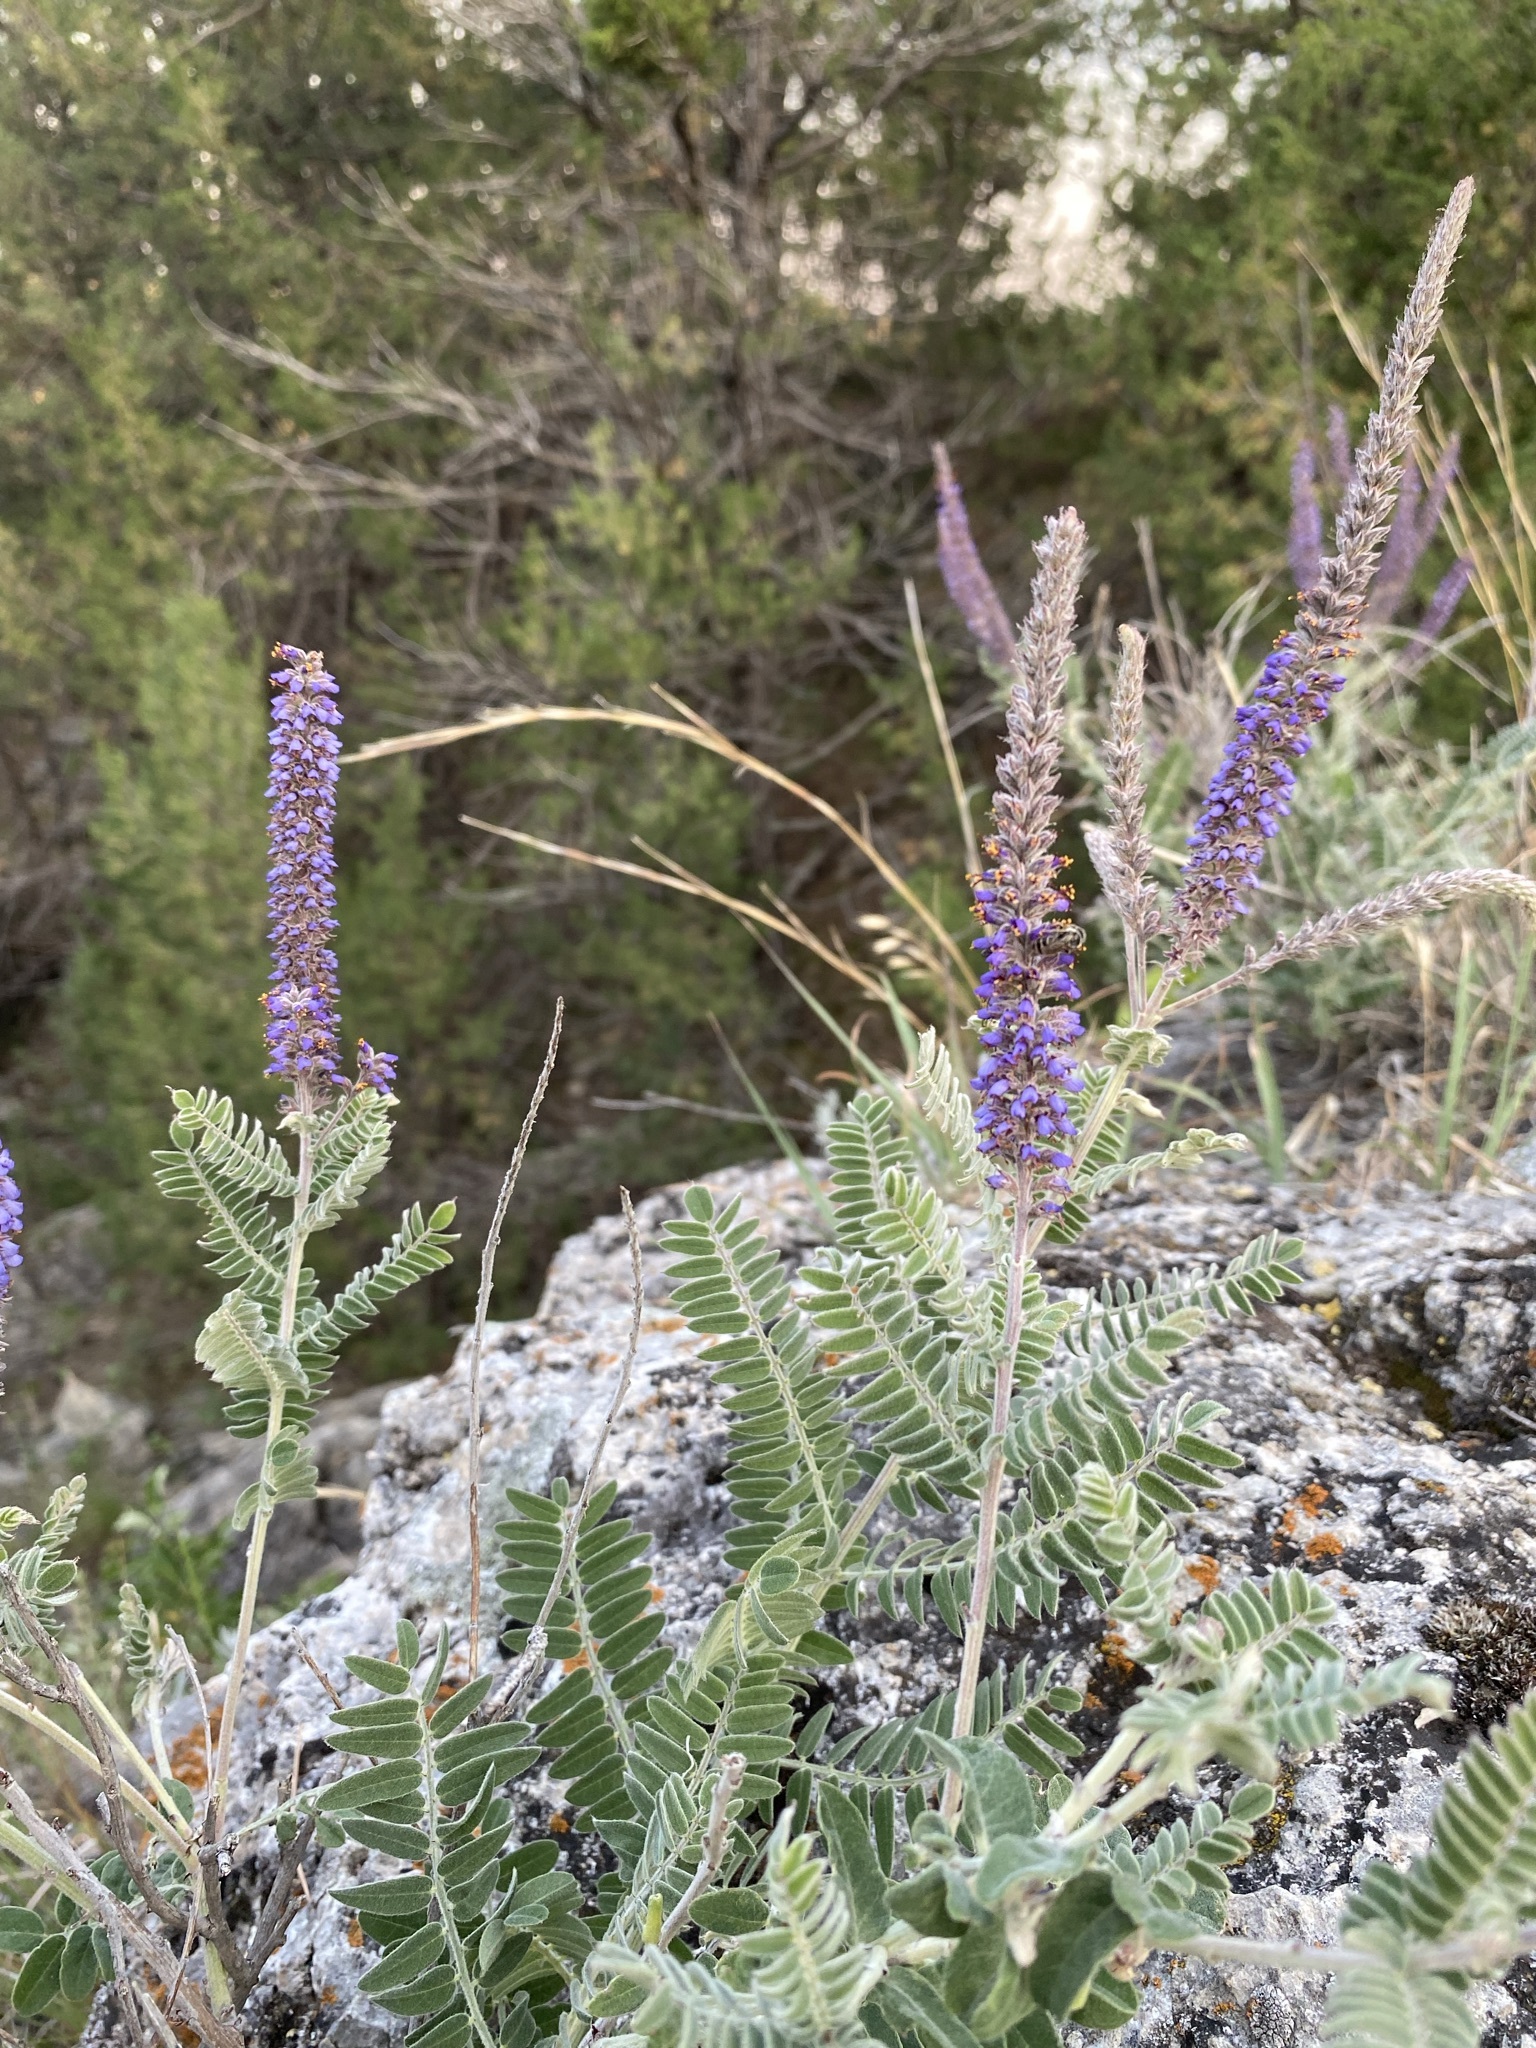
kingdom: Plantae
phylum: Tracheophyta
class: Magnoliopsida
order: Fabales
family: Fabaceae
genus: Amorpha
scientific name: Amorpha canescens
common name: Leadplant
